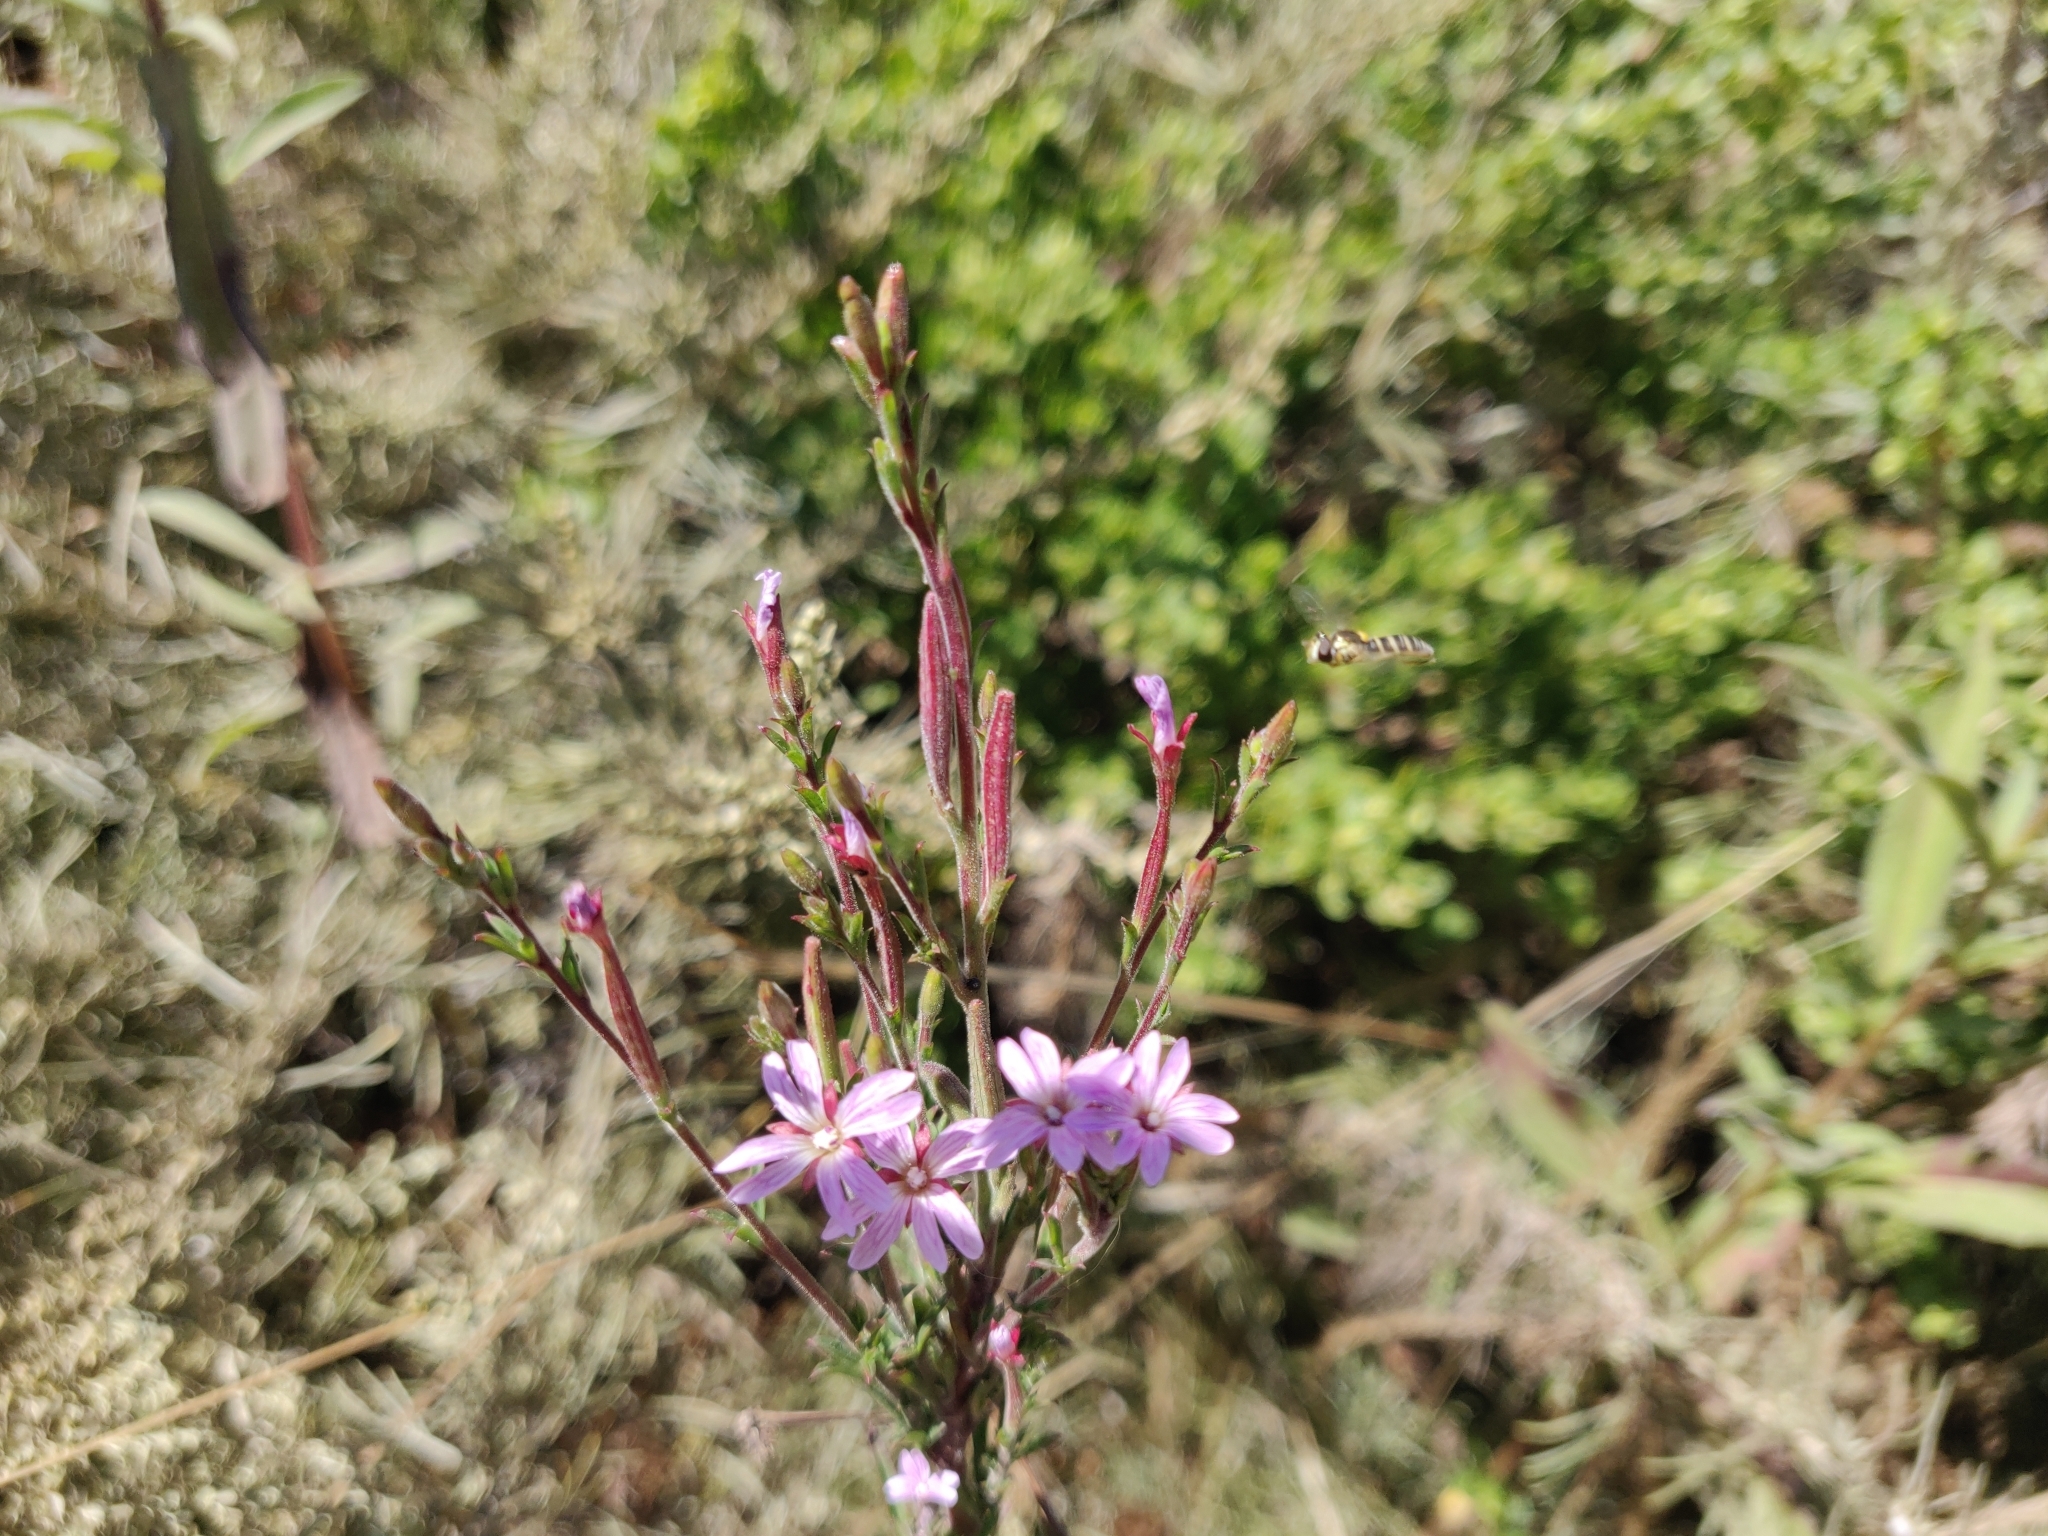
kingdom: Animalia
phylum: Arthropoda
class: Insecta
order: Diptera
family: Syrphidae
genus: Sphaerophoria
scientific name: Sphaerophoria sulphuripes
